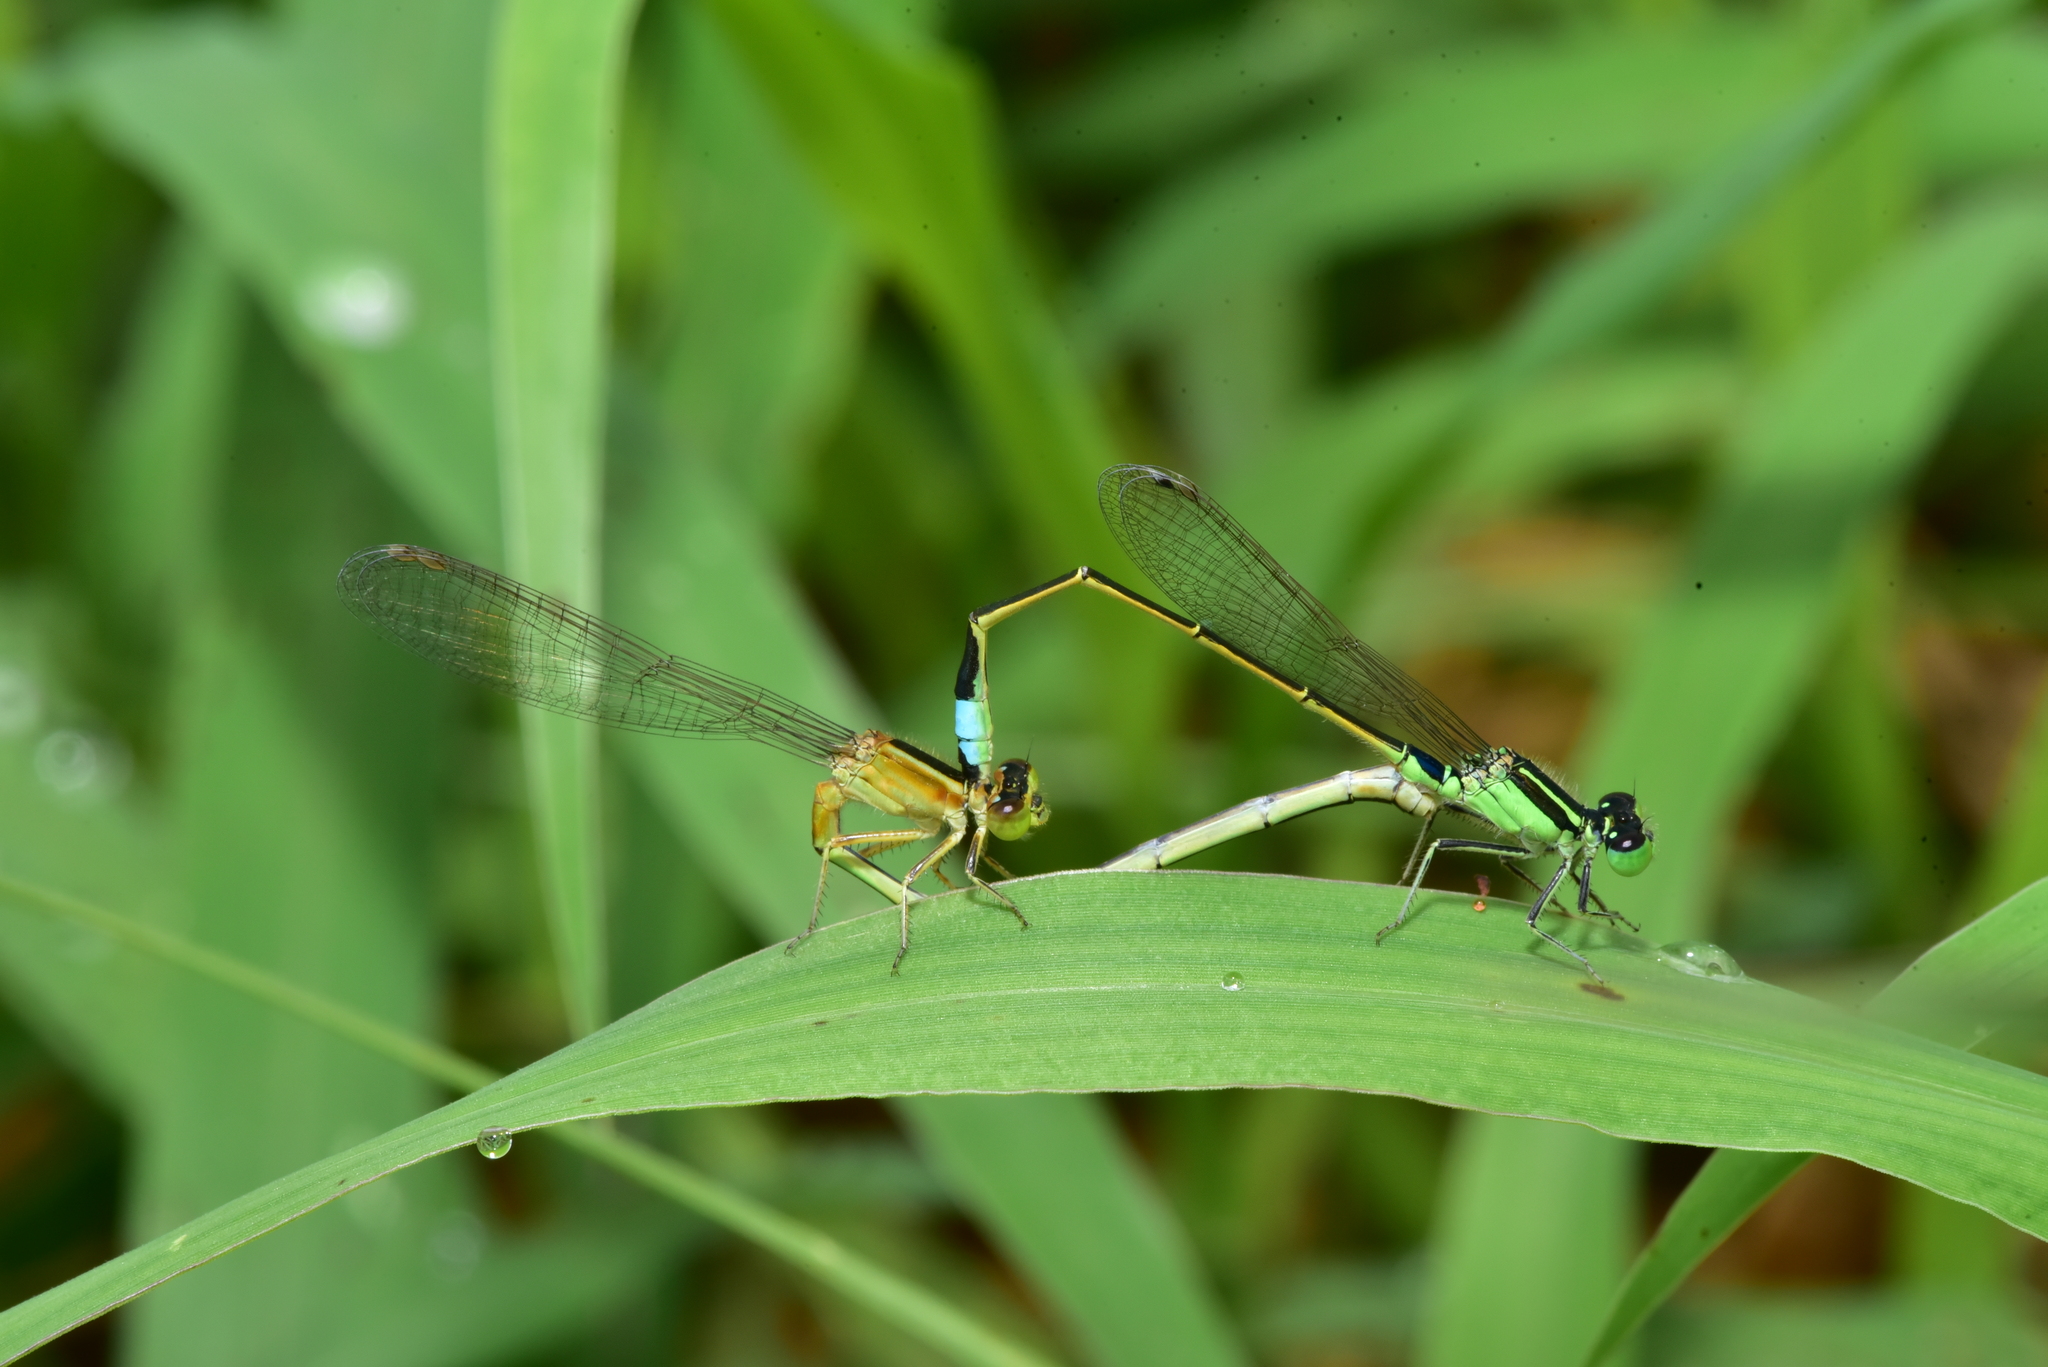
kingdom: Animalia
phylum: Arthropoda
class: Insecta
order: Odonata
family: Coenagrionidae
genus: Ischnura
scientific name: Ischnura senegalensis
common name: Tropical bluetail
